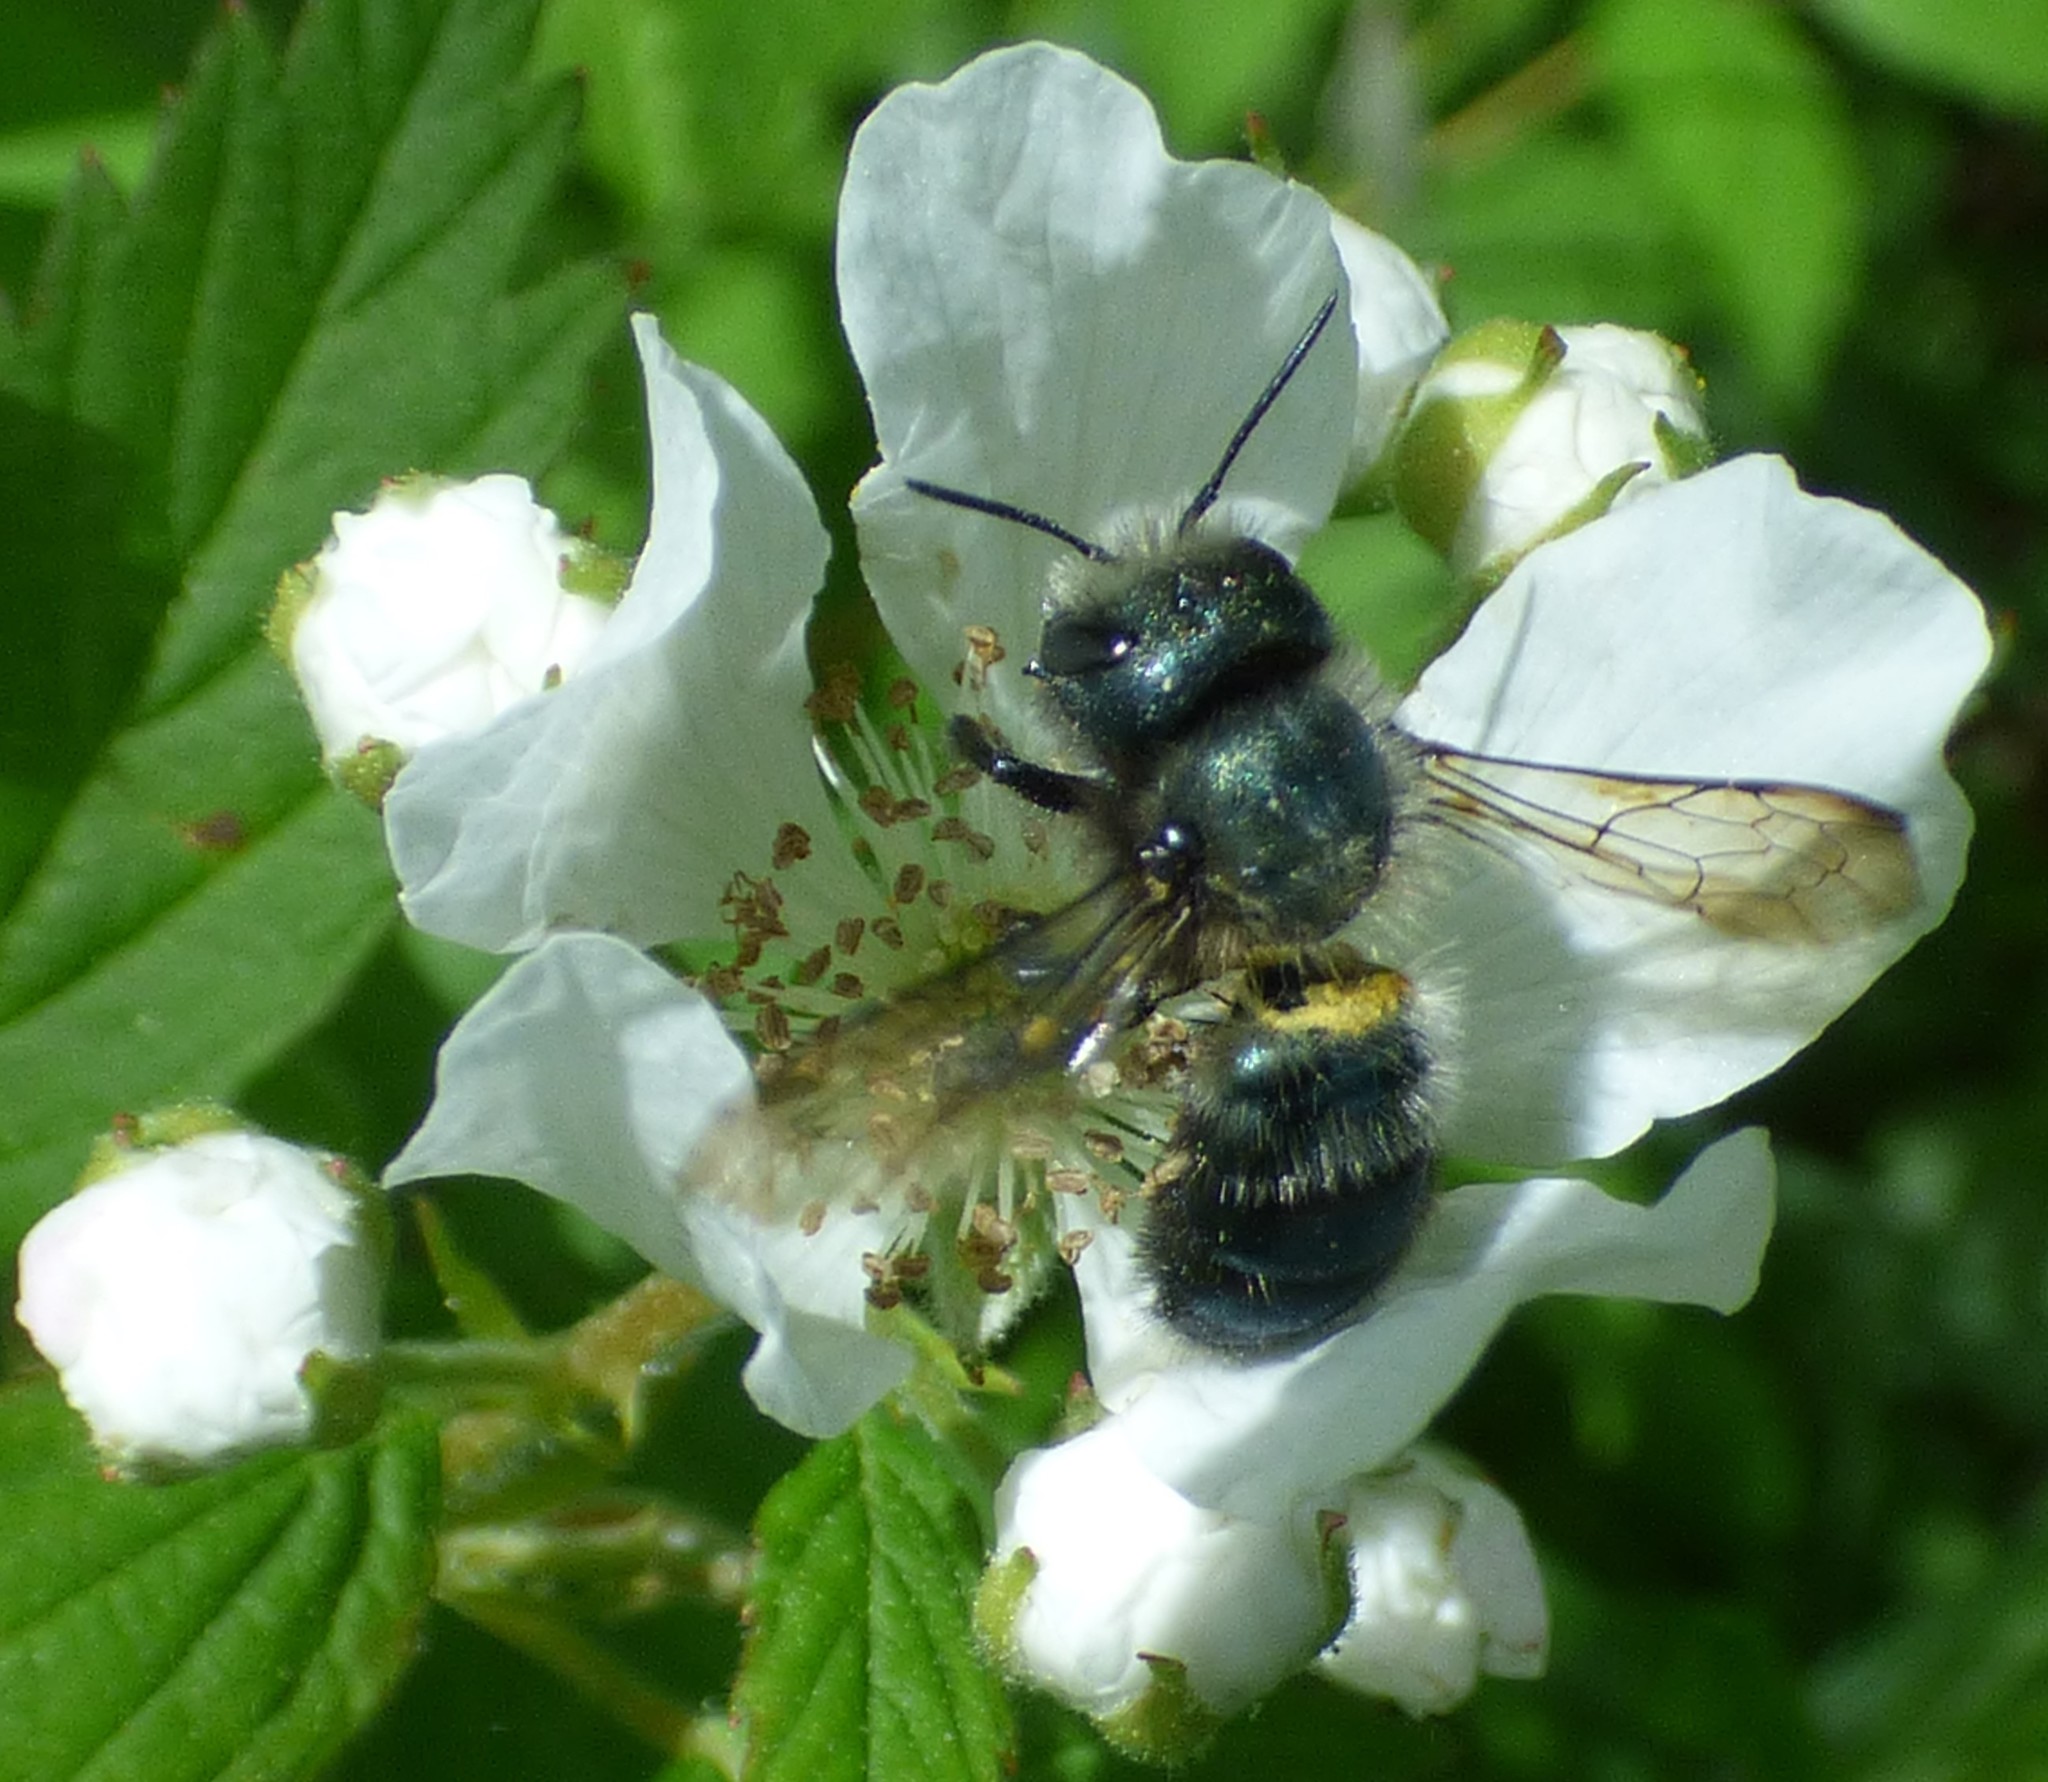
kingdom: Animalia
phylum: Arthropoda
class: Insecta
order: Hymenoptera
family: Megachilidae
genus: Osmia
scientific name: Osmia lignaria
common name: Blue orchard bee
